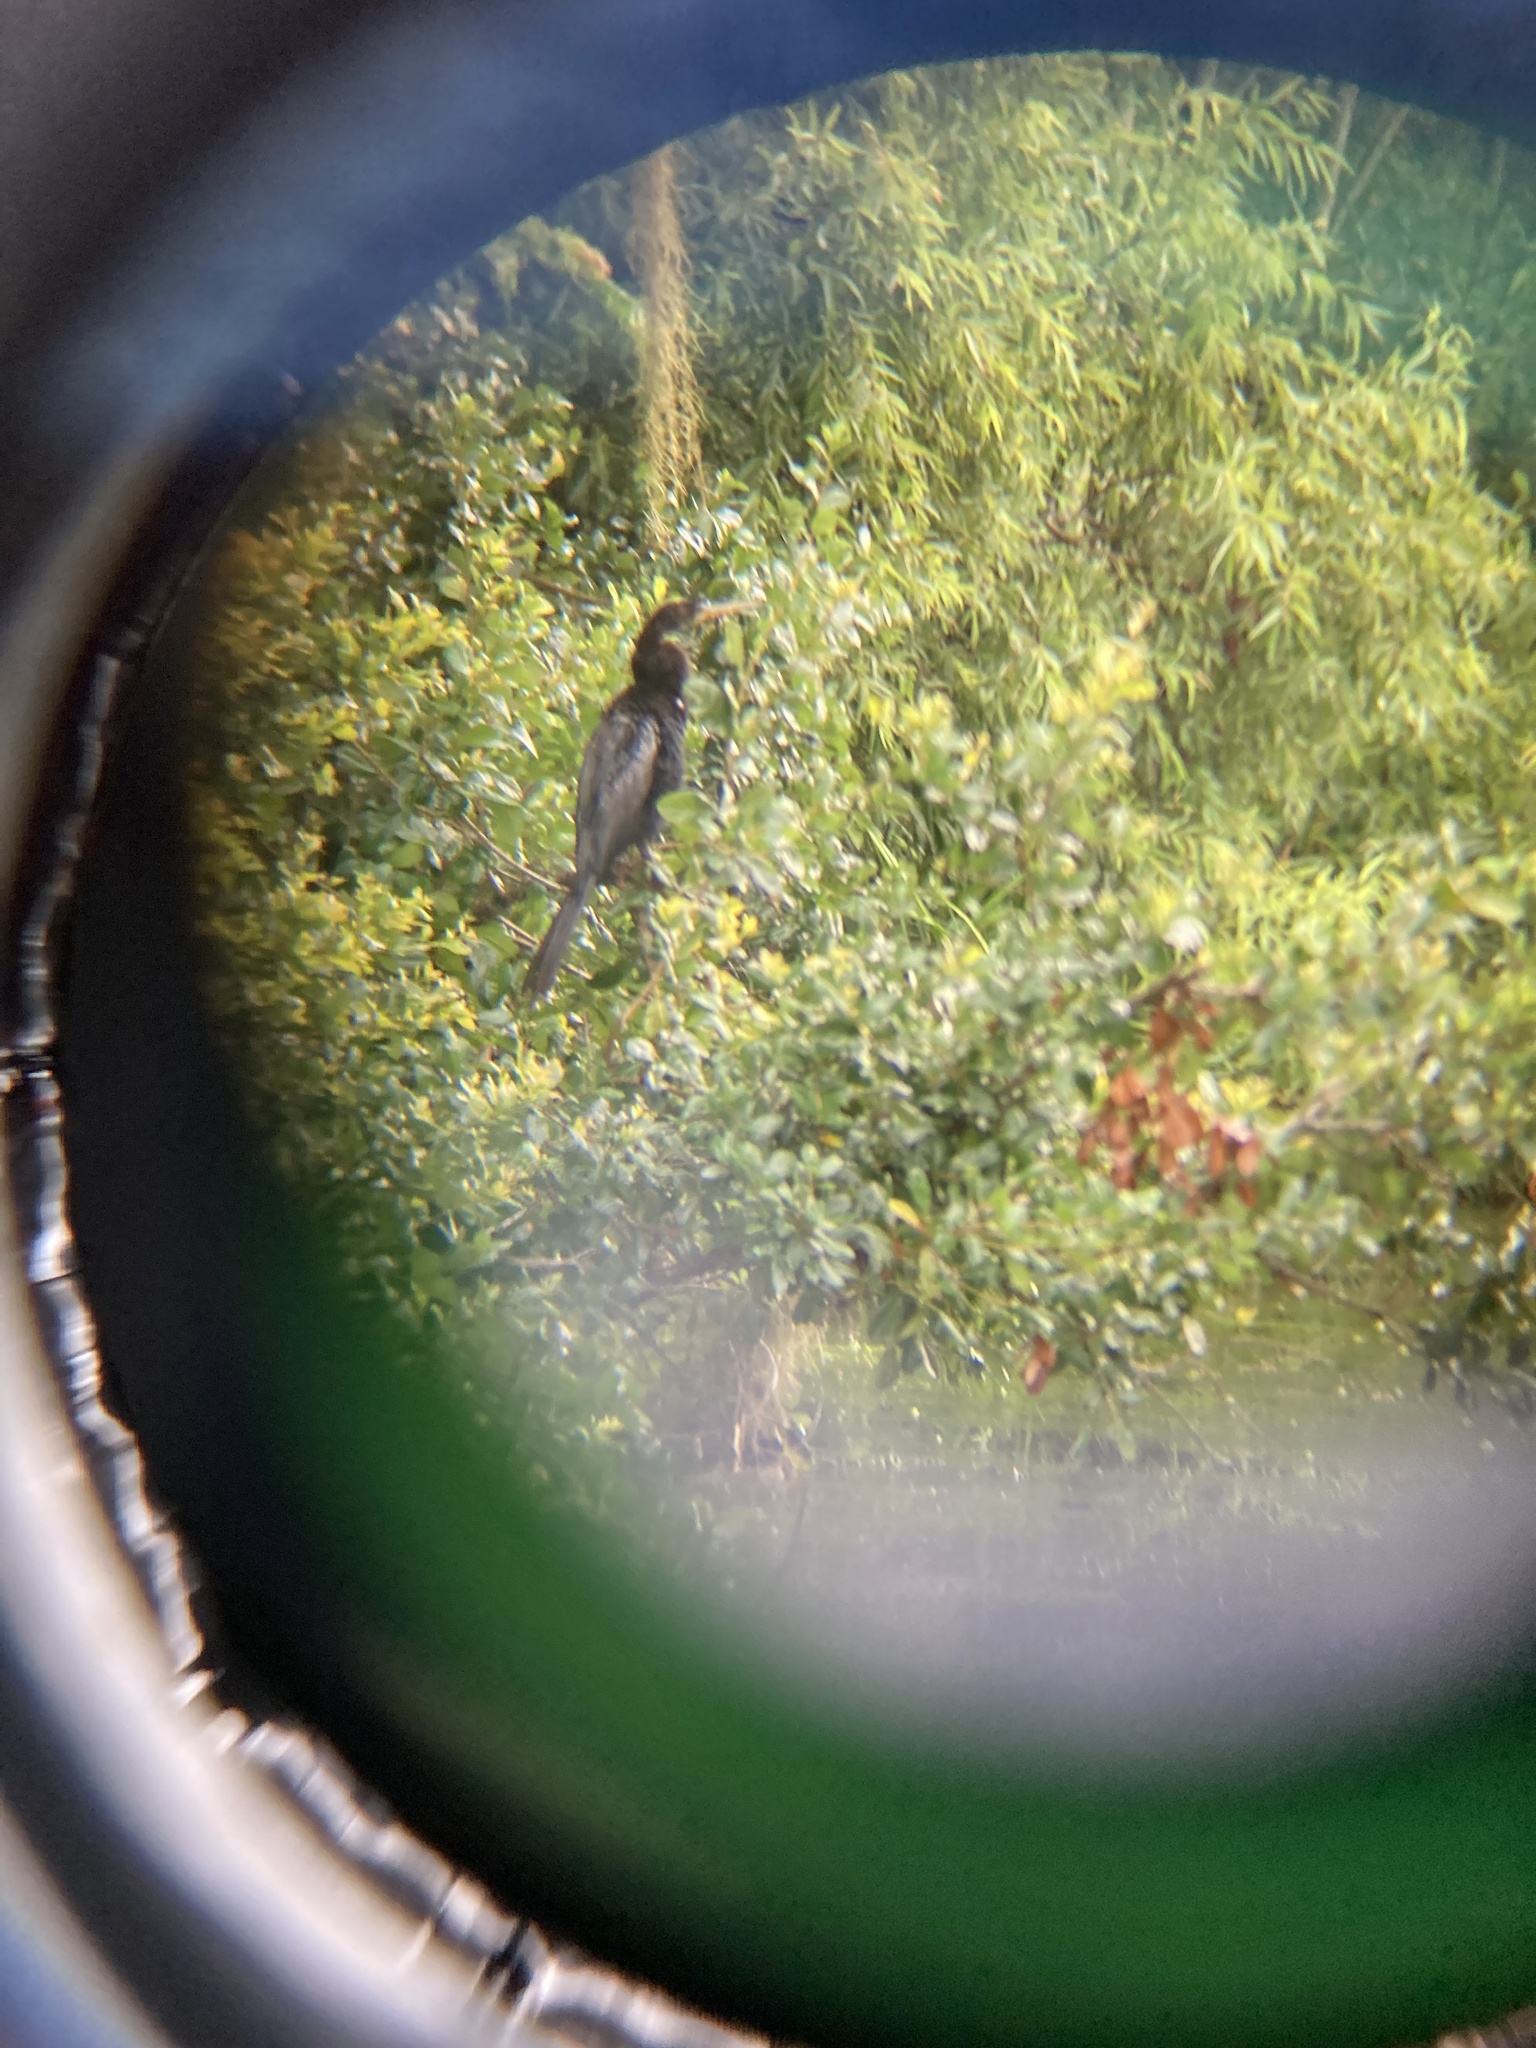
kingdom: Animalia
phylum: Chordata
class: Aves
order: Suliformes
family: Anhingidae
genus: Anhinga
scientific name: Anhinga anhinga
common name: Anhinga
